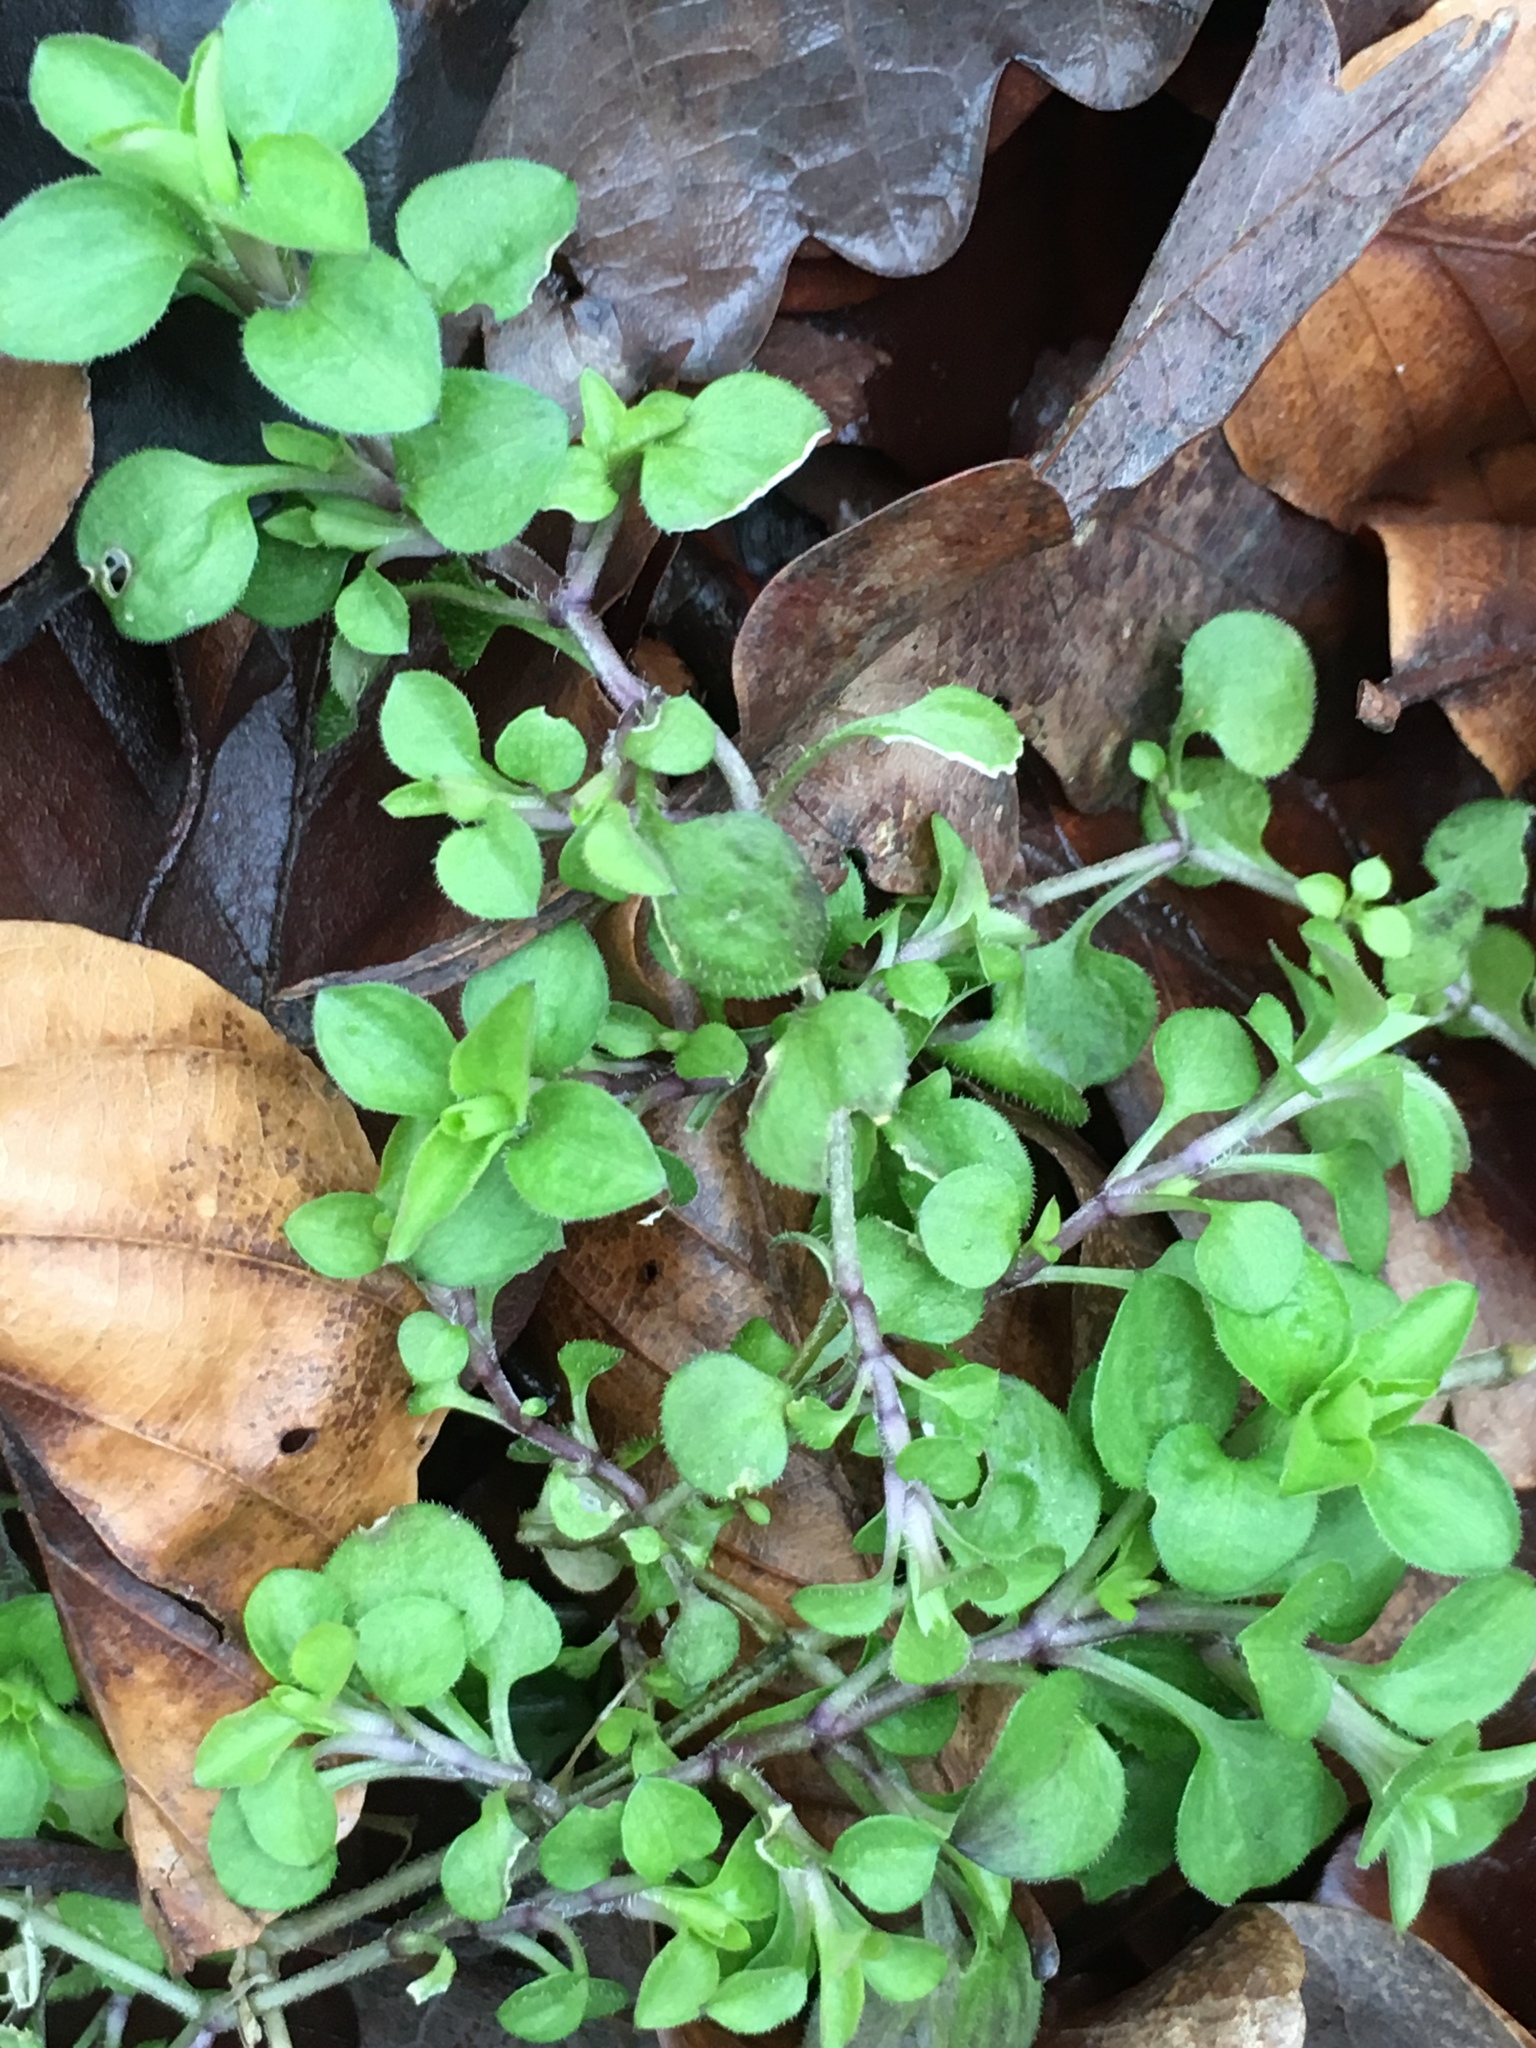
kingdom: Plantae
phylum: Tracheophyta
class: Magnoliopsida
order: Caryophyllales
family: Caryophyllaceae
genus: Stellaria
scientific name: Stellaria media
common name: Common chickweed
